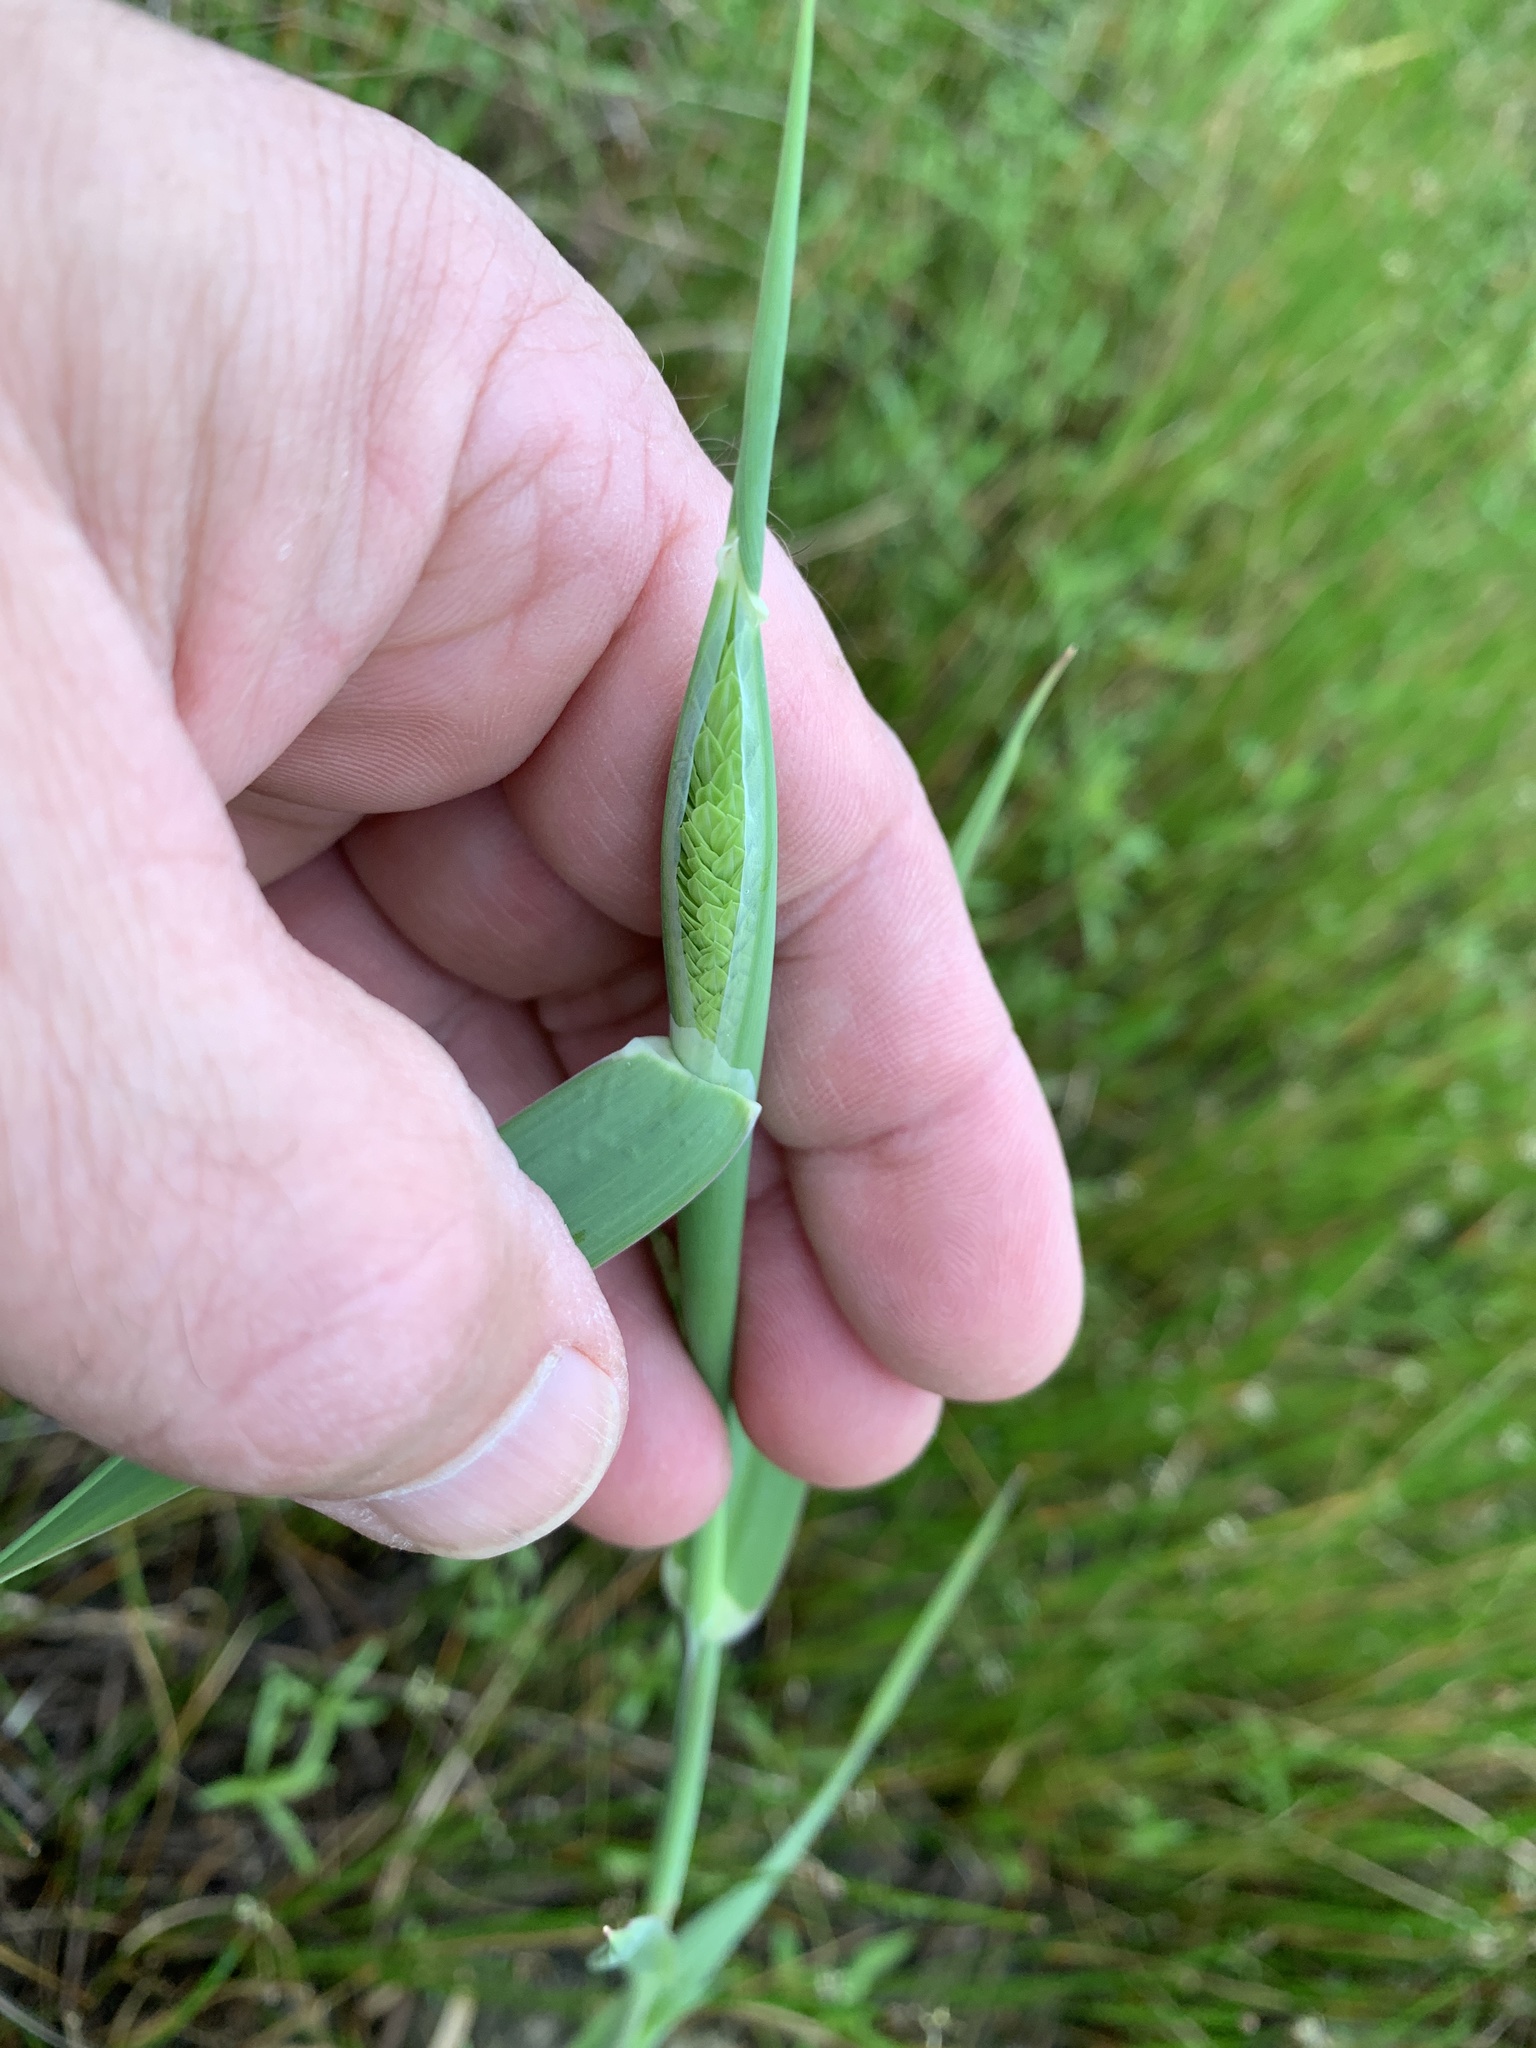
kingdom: Plantae
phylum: Tracheophyta
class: Liliopsida
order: Poales
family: Poaceae
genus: Phalaris
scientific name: Phalaris caroliniana
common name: May grass
